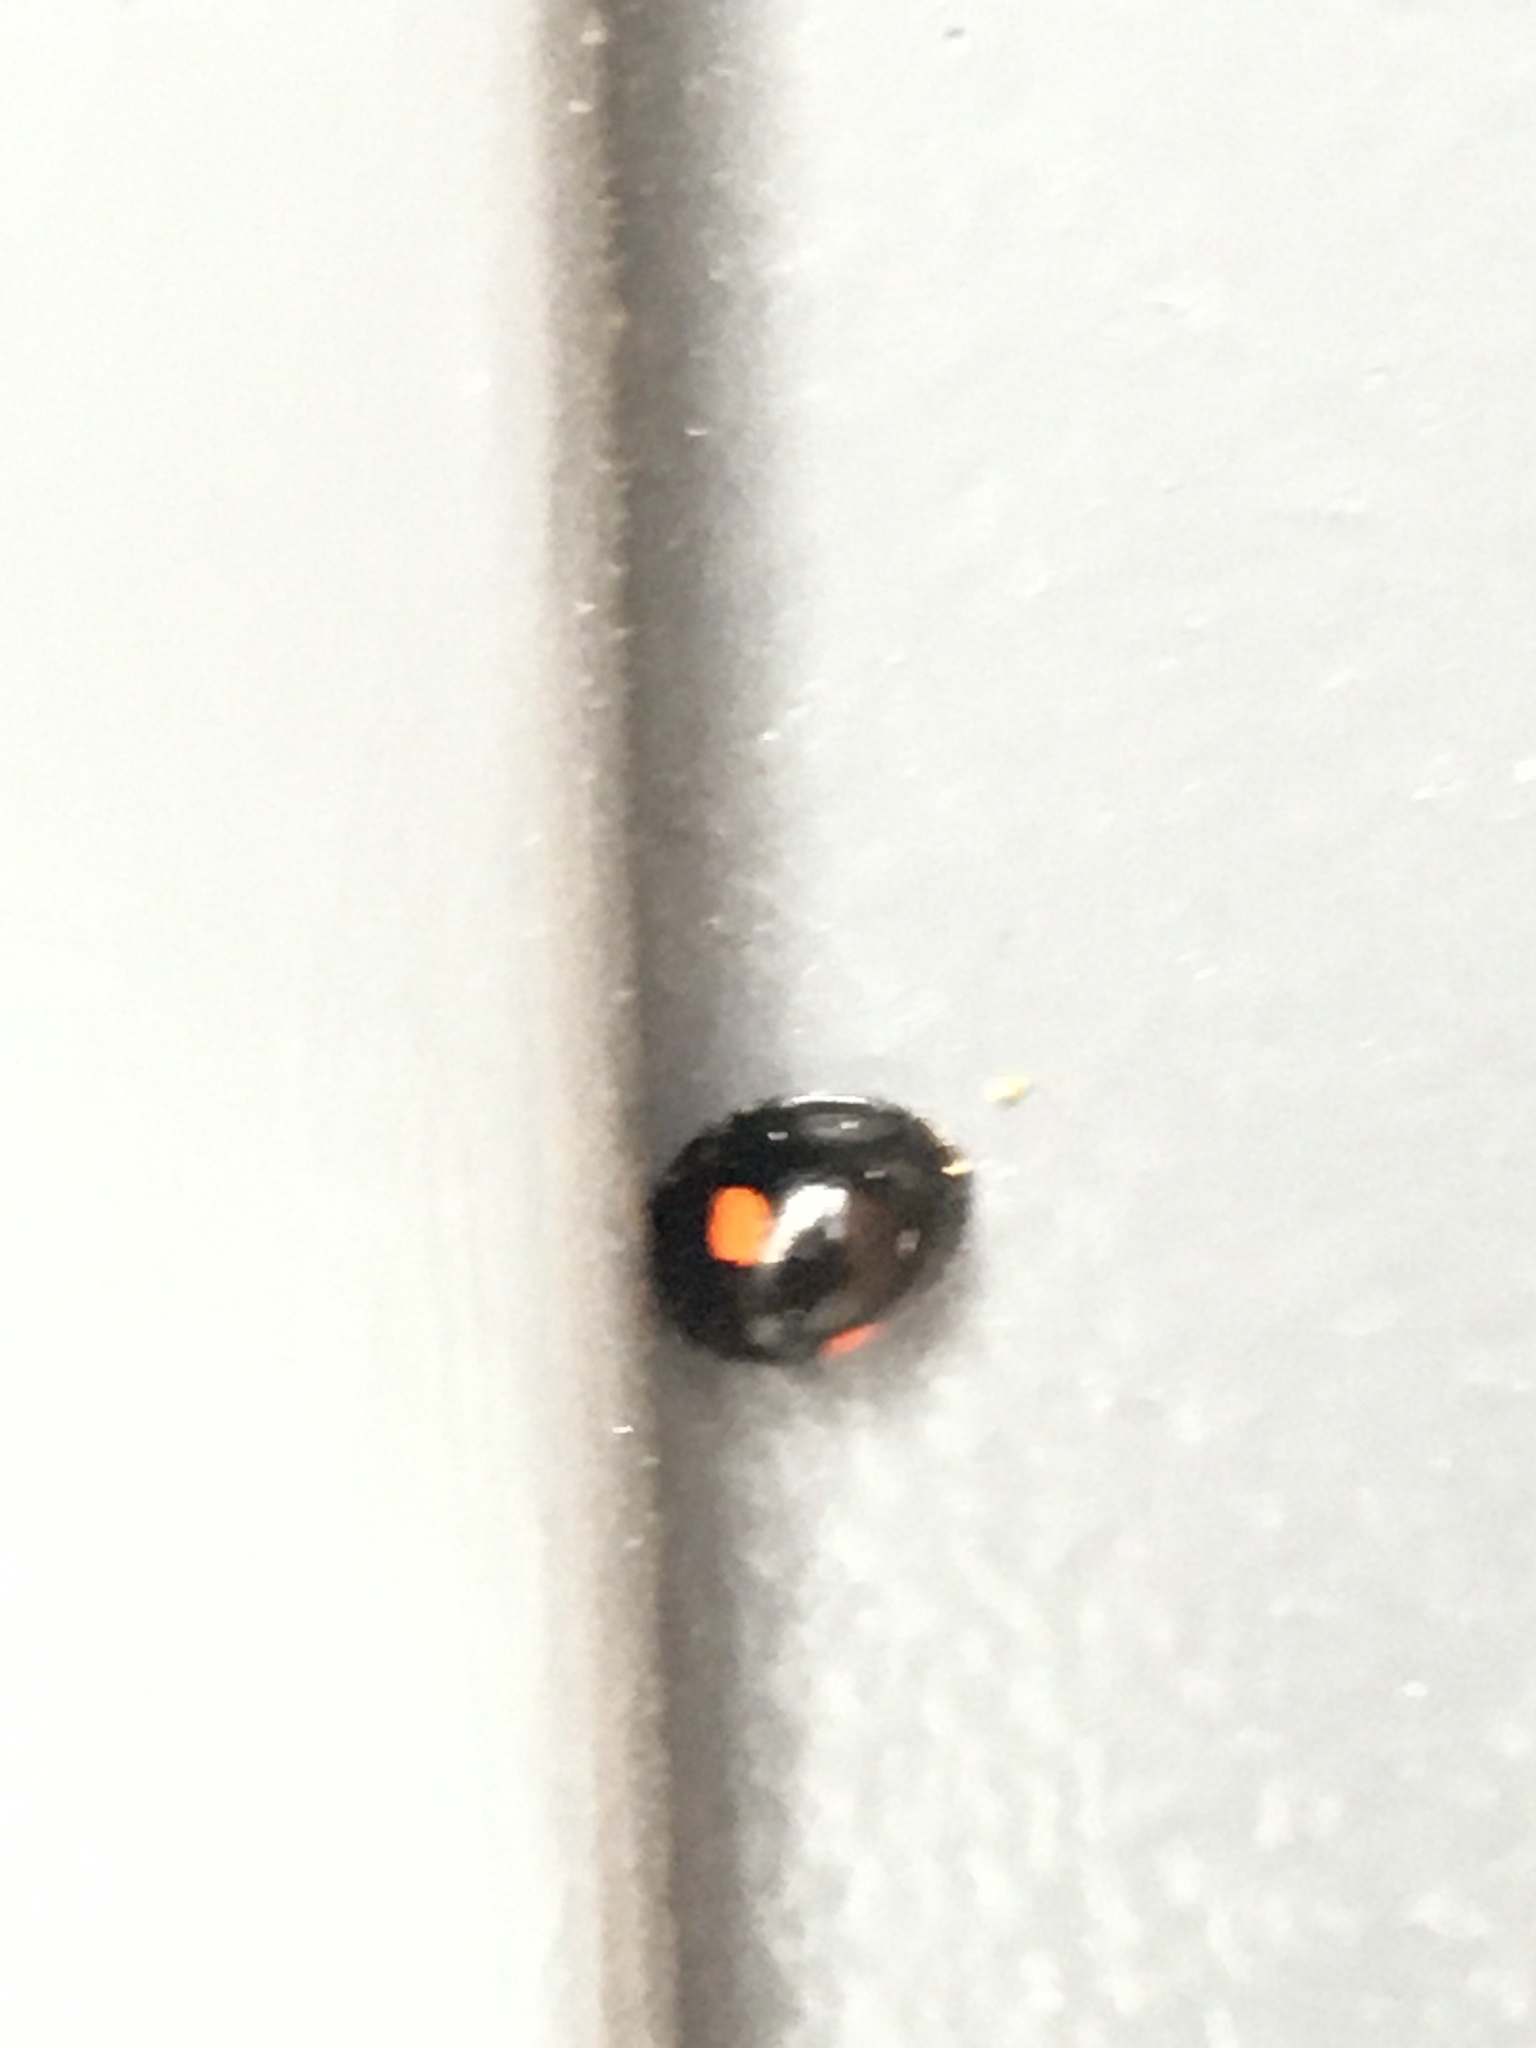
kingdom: Animalia
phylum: Arthropoda
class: Insecta
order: Coleoptera
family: Coccinellidae
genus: Chilocorus
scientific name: Chilocorus stigma
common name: Twicestabbed lady beetle
